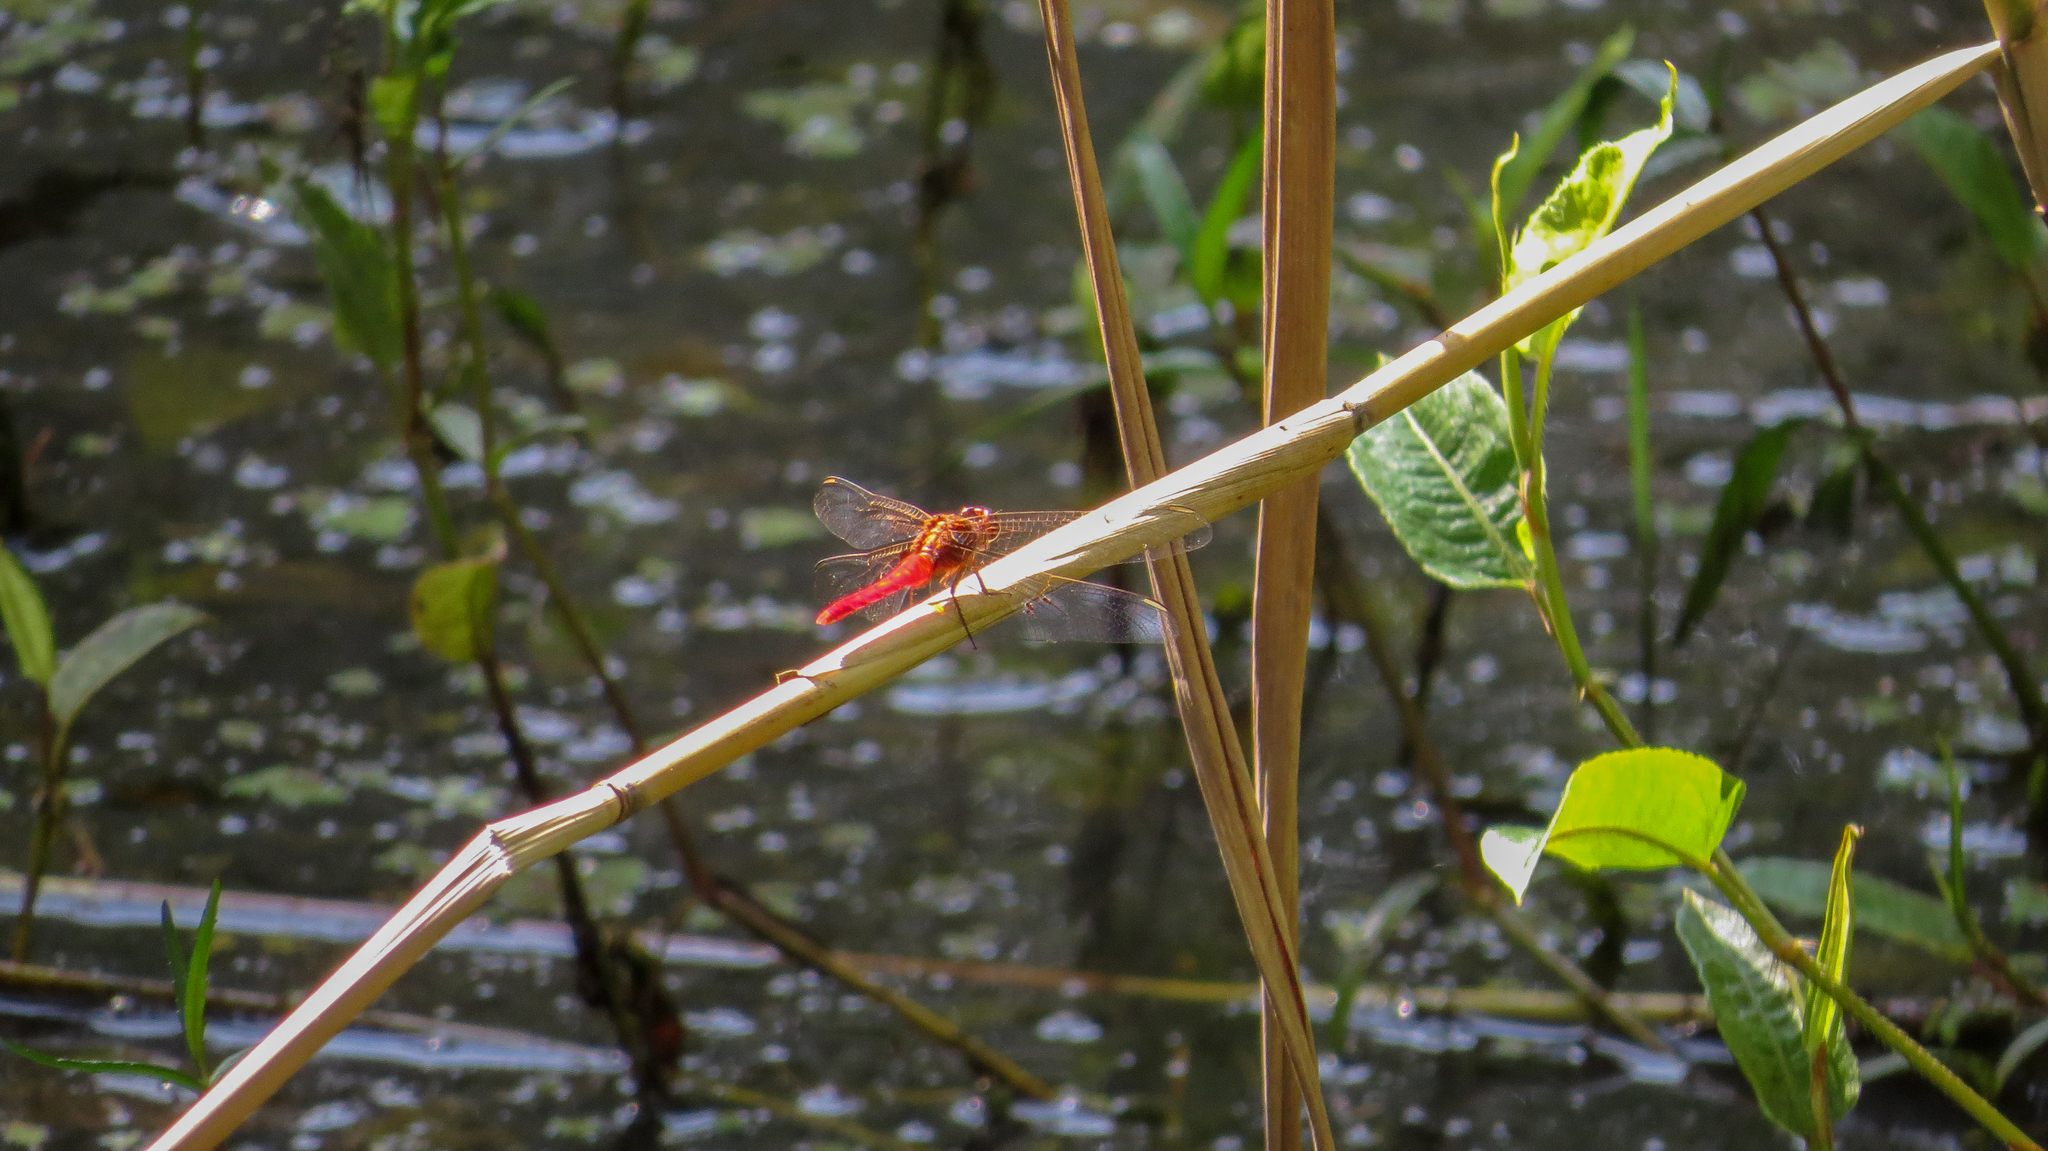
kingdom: Animalia
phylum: Arthropoda
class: Insecta
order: Odonata
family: Libellulidae
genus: Rhodothemis
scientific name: Rhodothemis lieftincki
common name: Red arrow
